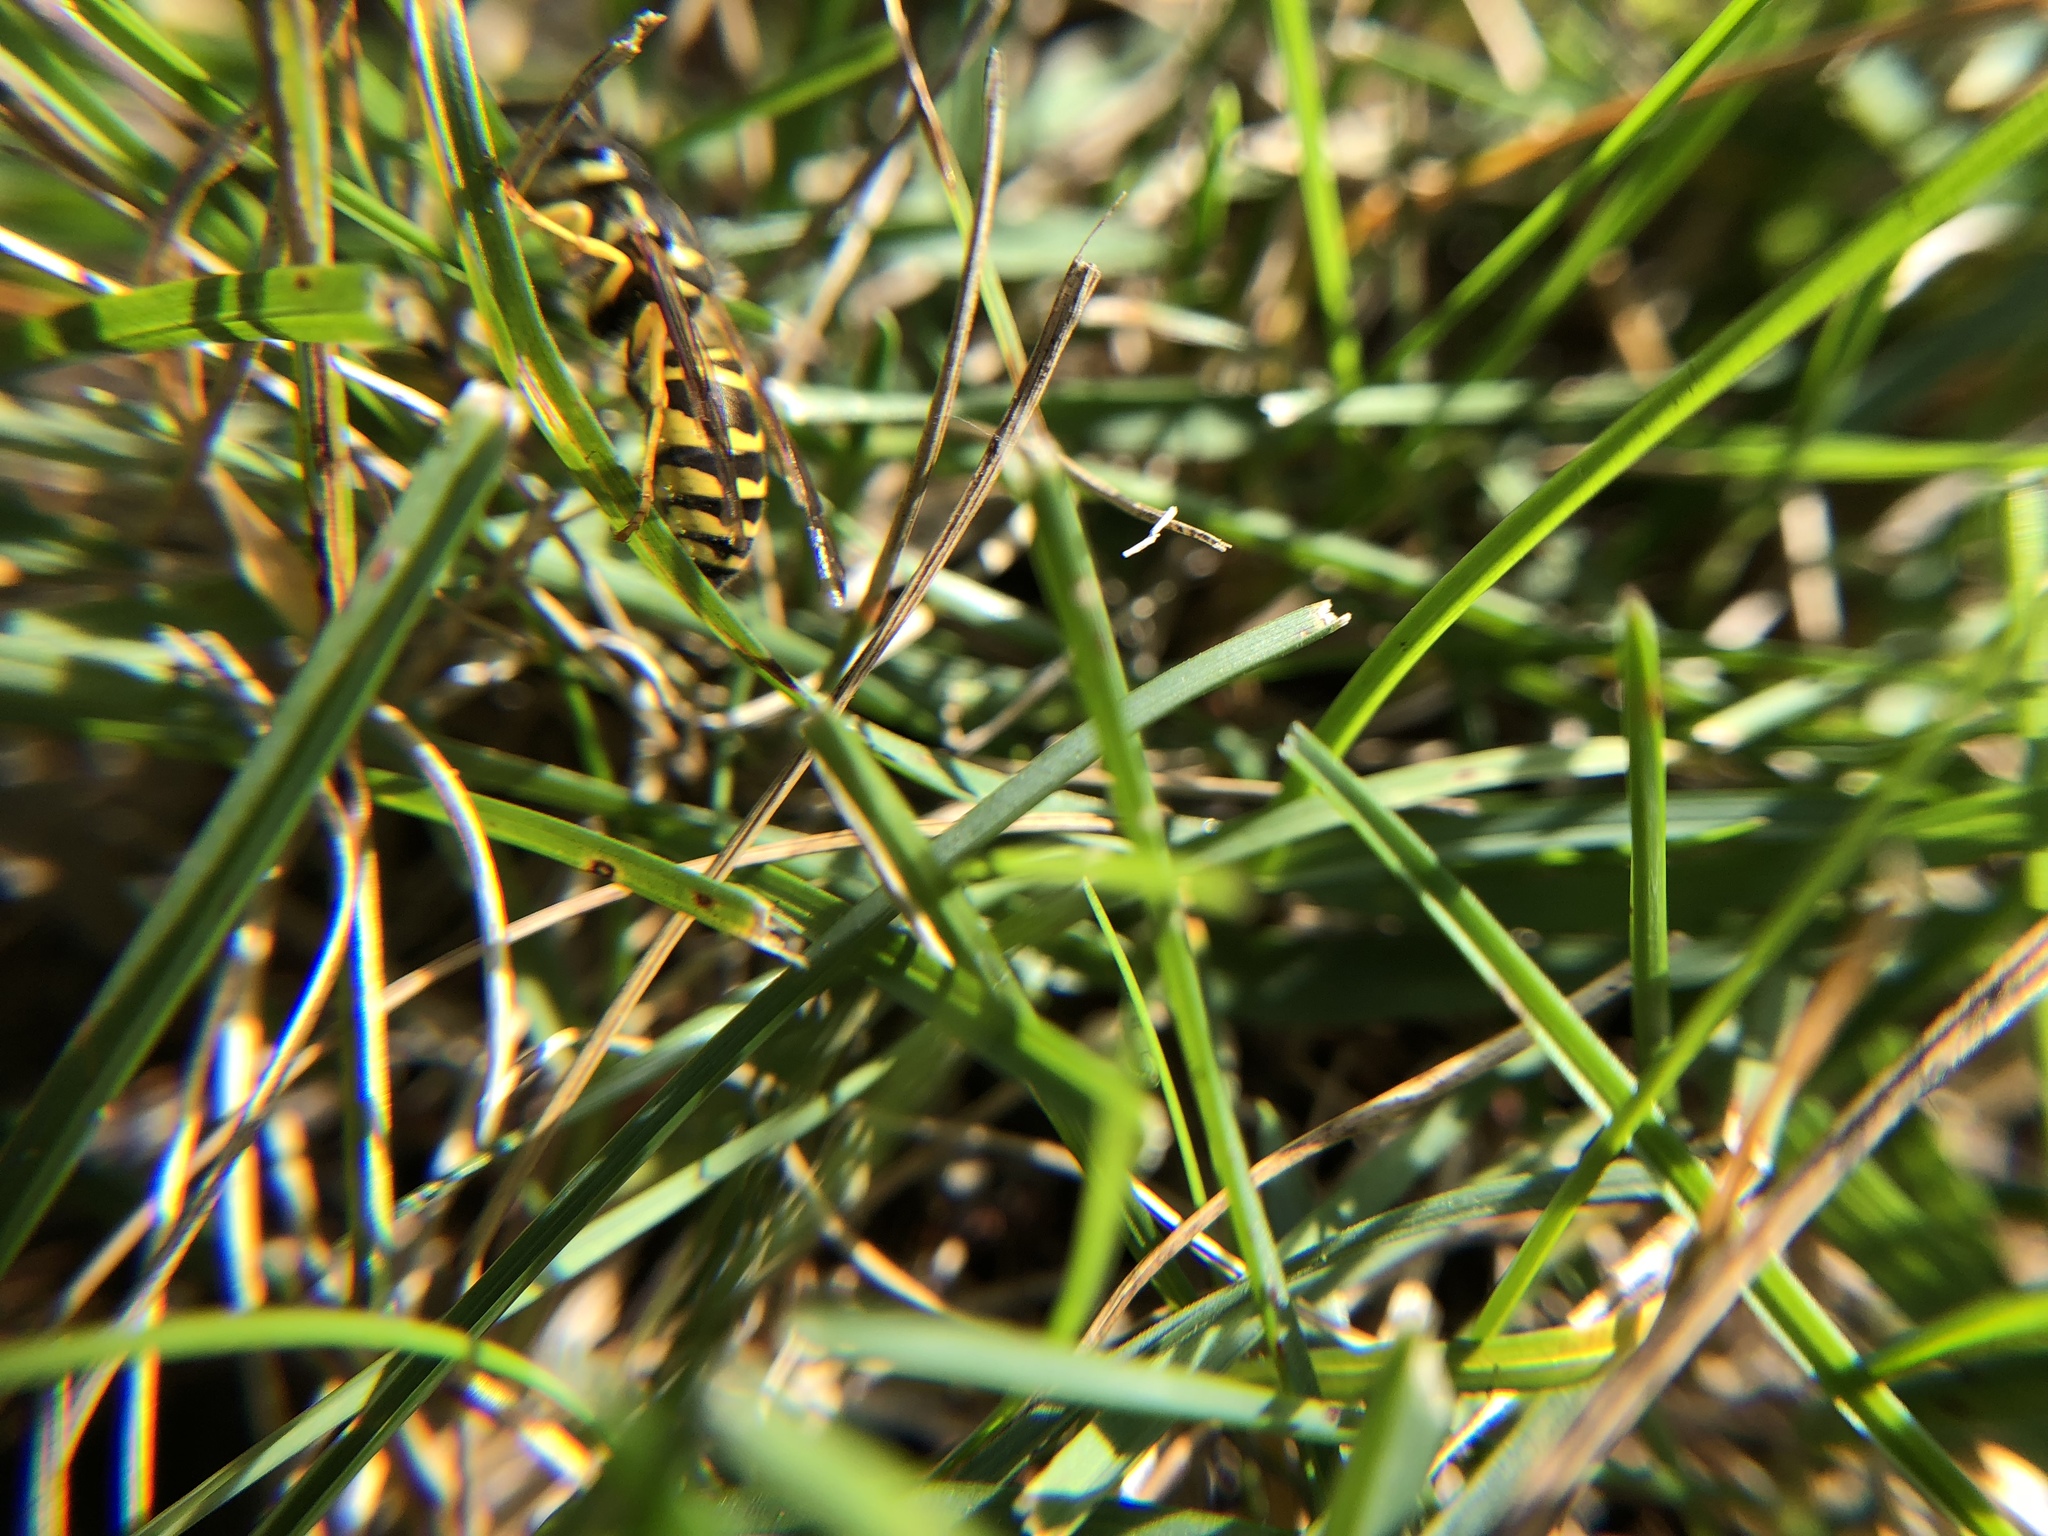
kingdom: Animalia
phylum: Arthropoda
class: Insecta
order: Hymenoptera
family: Vespidae
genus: Vespula
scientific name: Vespula maculifrons
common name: Eastern yellowjacket
